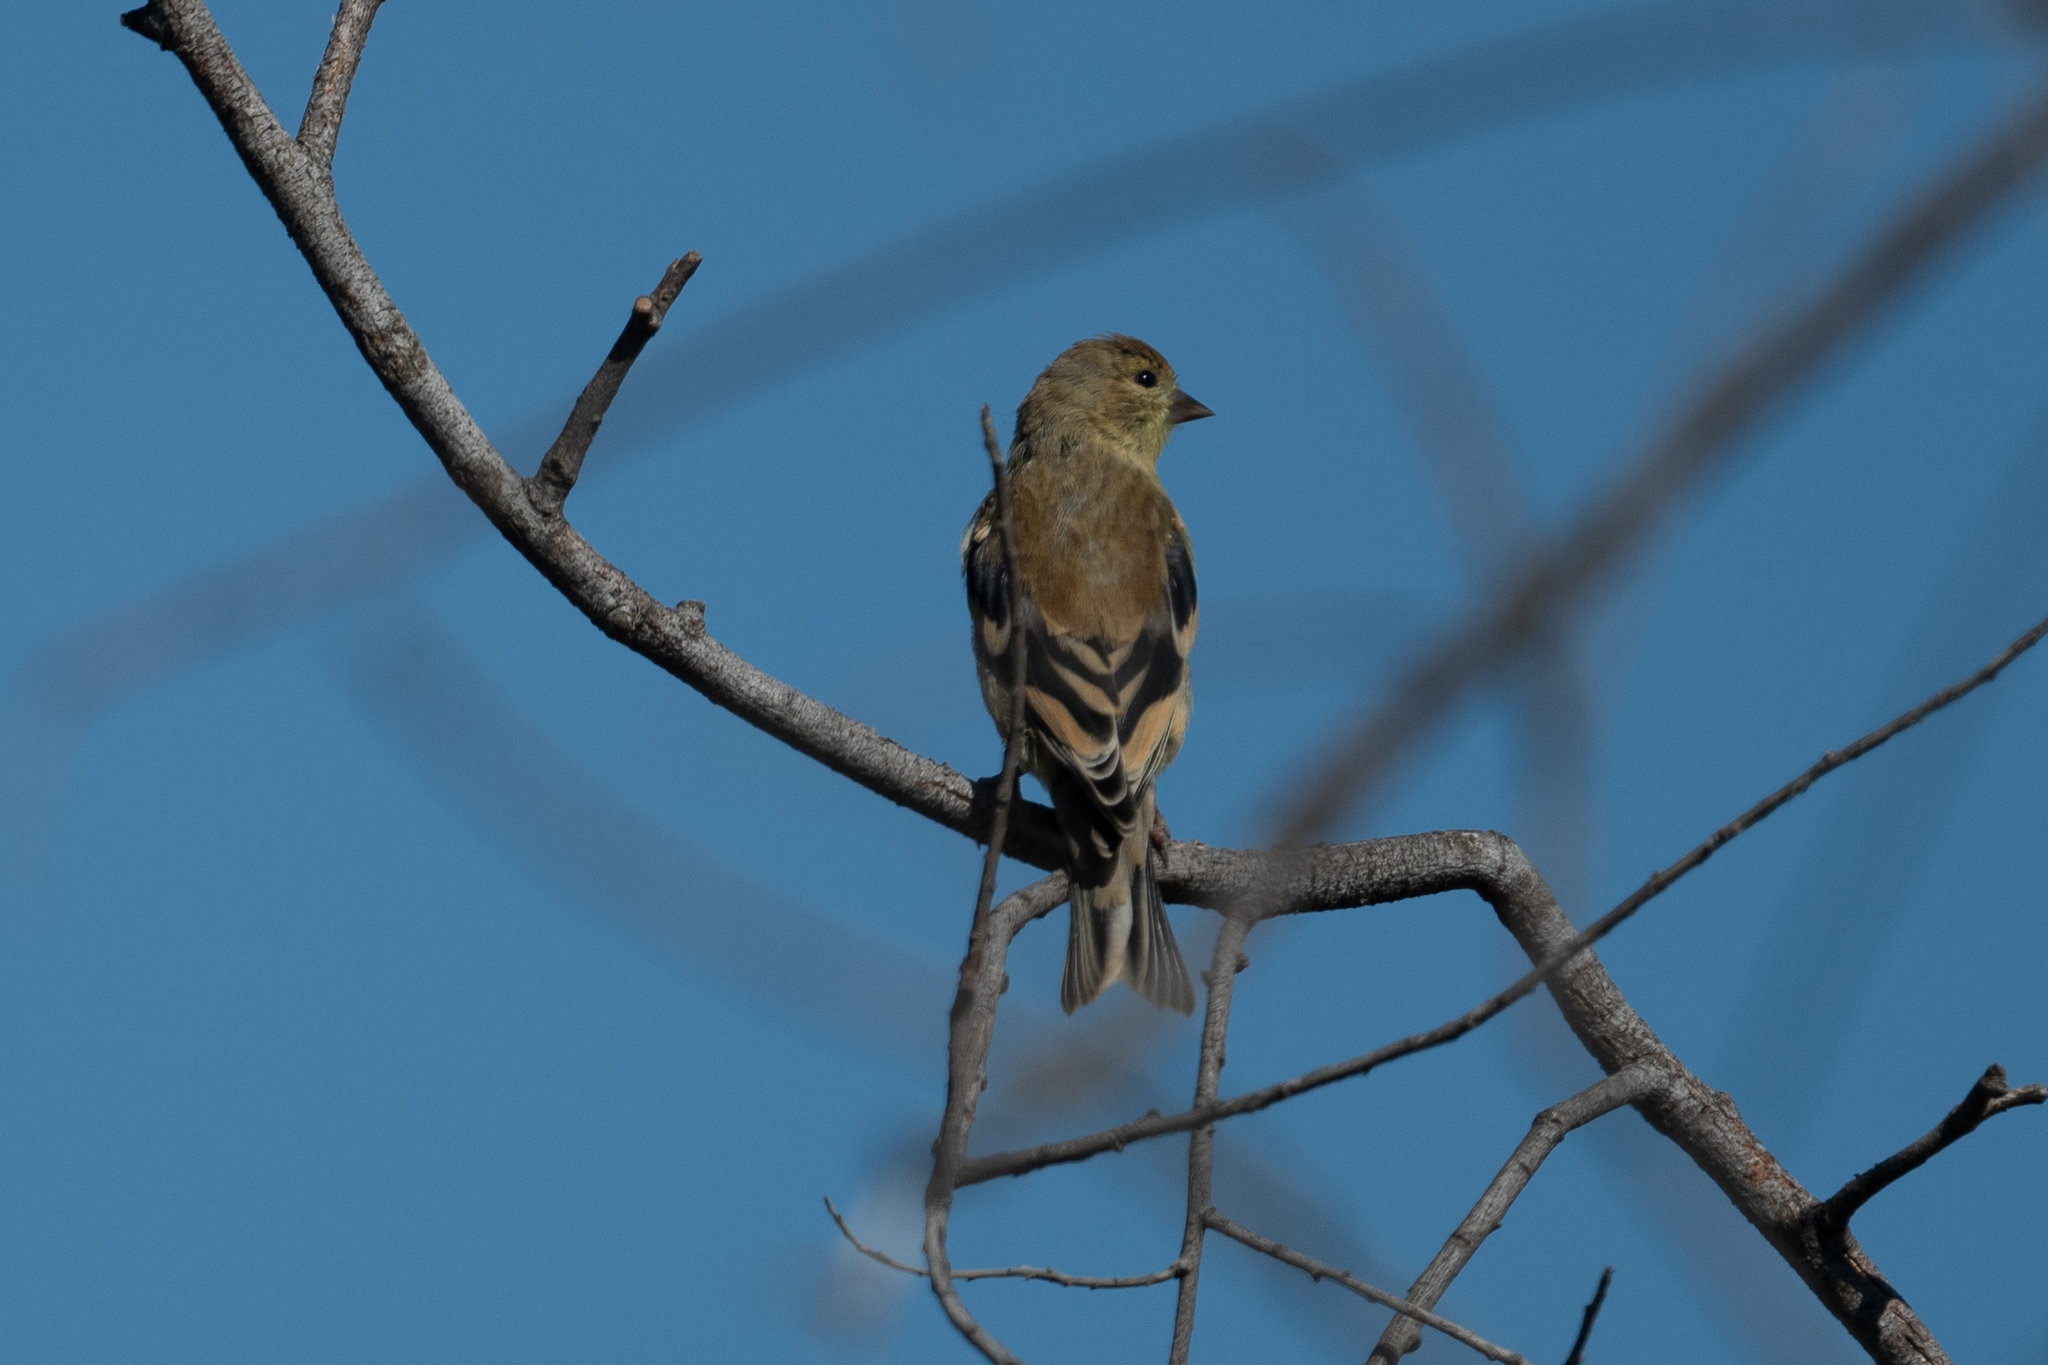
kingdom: Animalia
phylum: Chordata
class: Aves
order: Passeriformes
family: Fringillidae
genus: Spinus
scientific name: Spinus tristis
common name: American goldfinch
